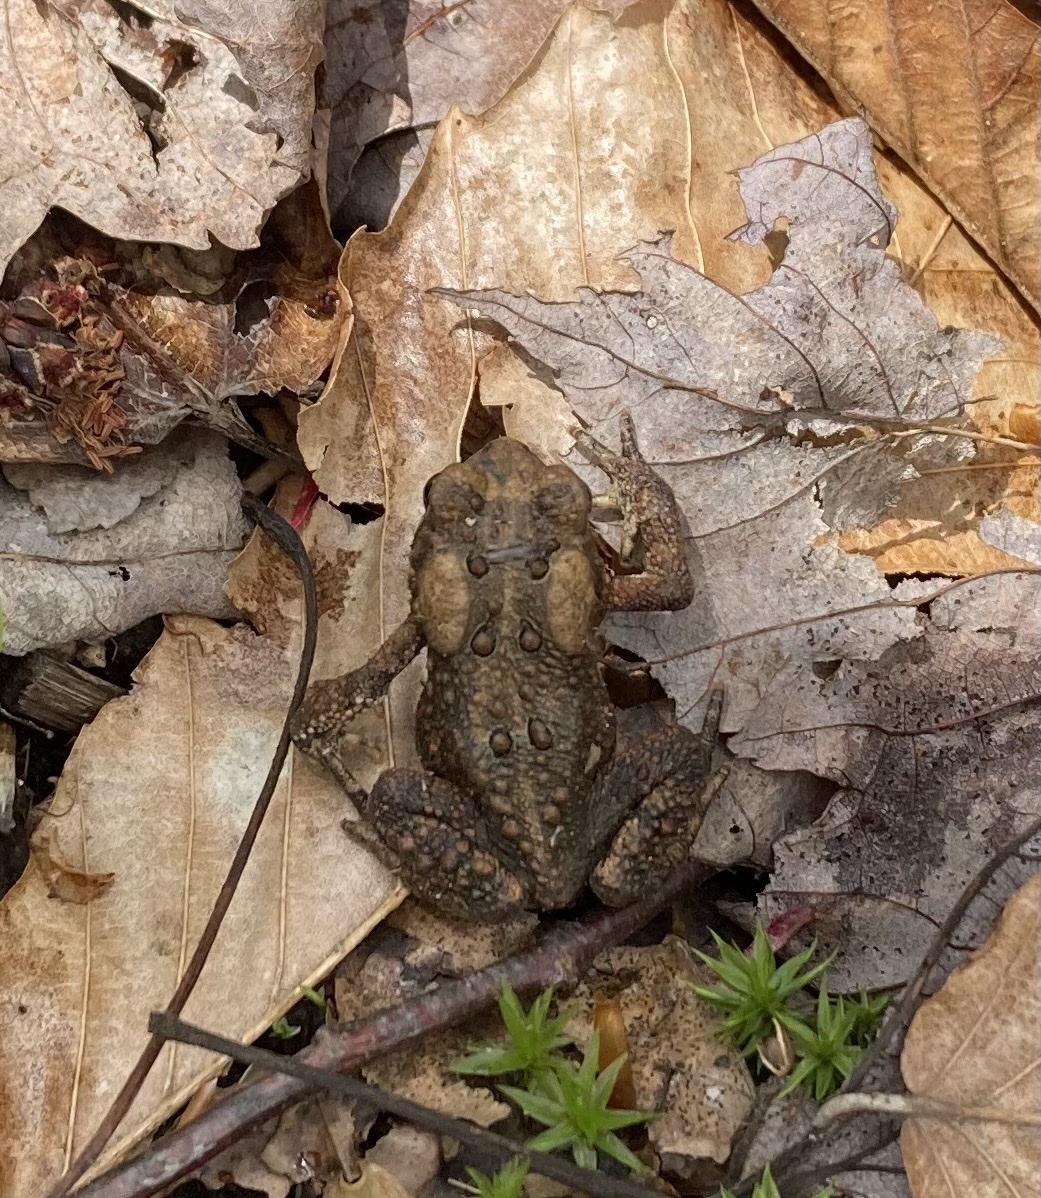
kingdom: Animalia
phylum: Chordata
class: Amphibia
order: Anura
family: Bufonidae
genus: Anaxyrus
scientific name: Anaxyrus americanus
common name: American toad
